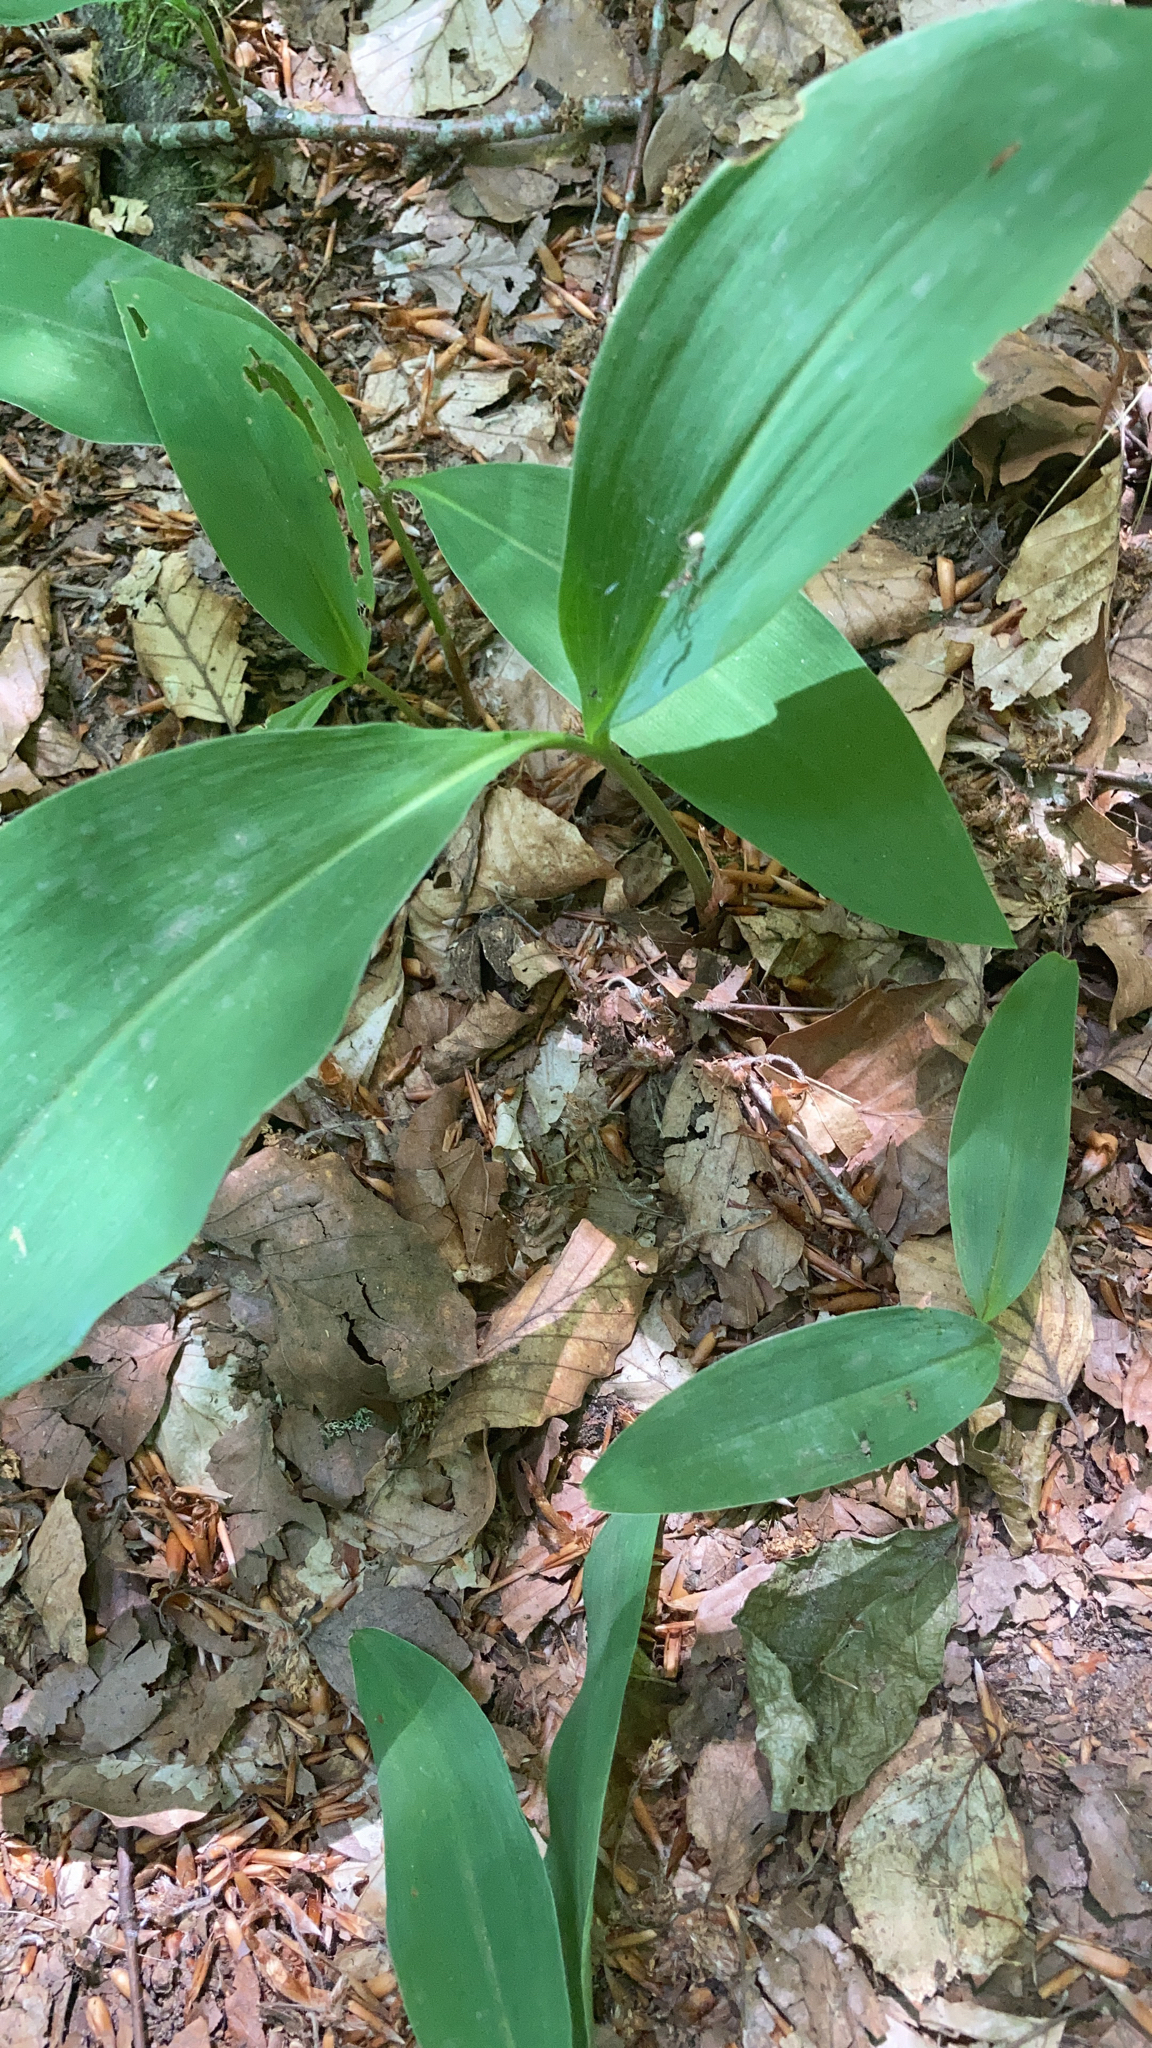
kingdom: Plantae
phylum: Tracheophyta
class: Liliopsida
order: Asparagales
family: Asparagaceae
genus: Convallaria
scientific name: Convallaria majalis
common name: Lily-of-the-valley
